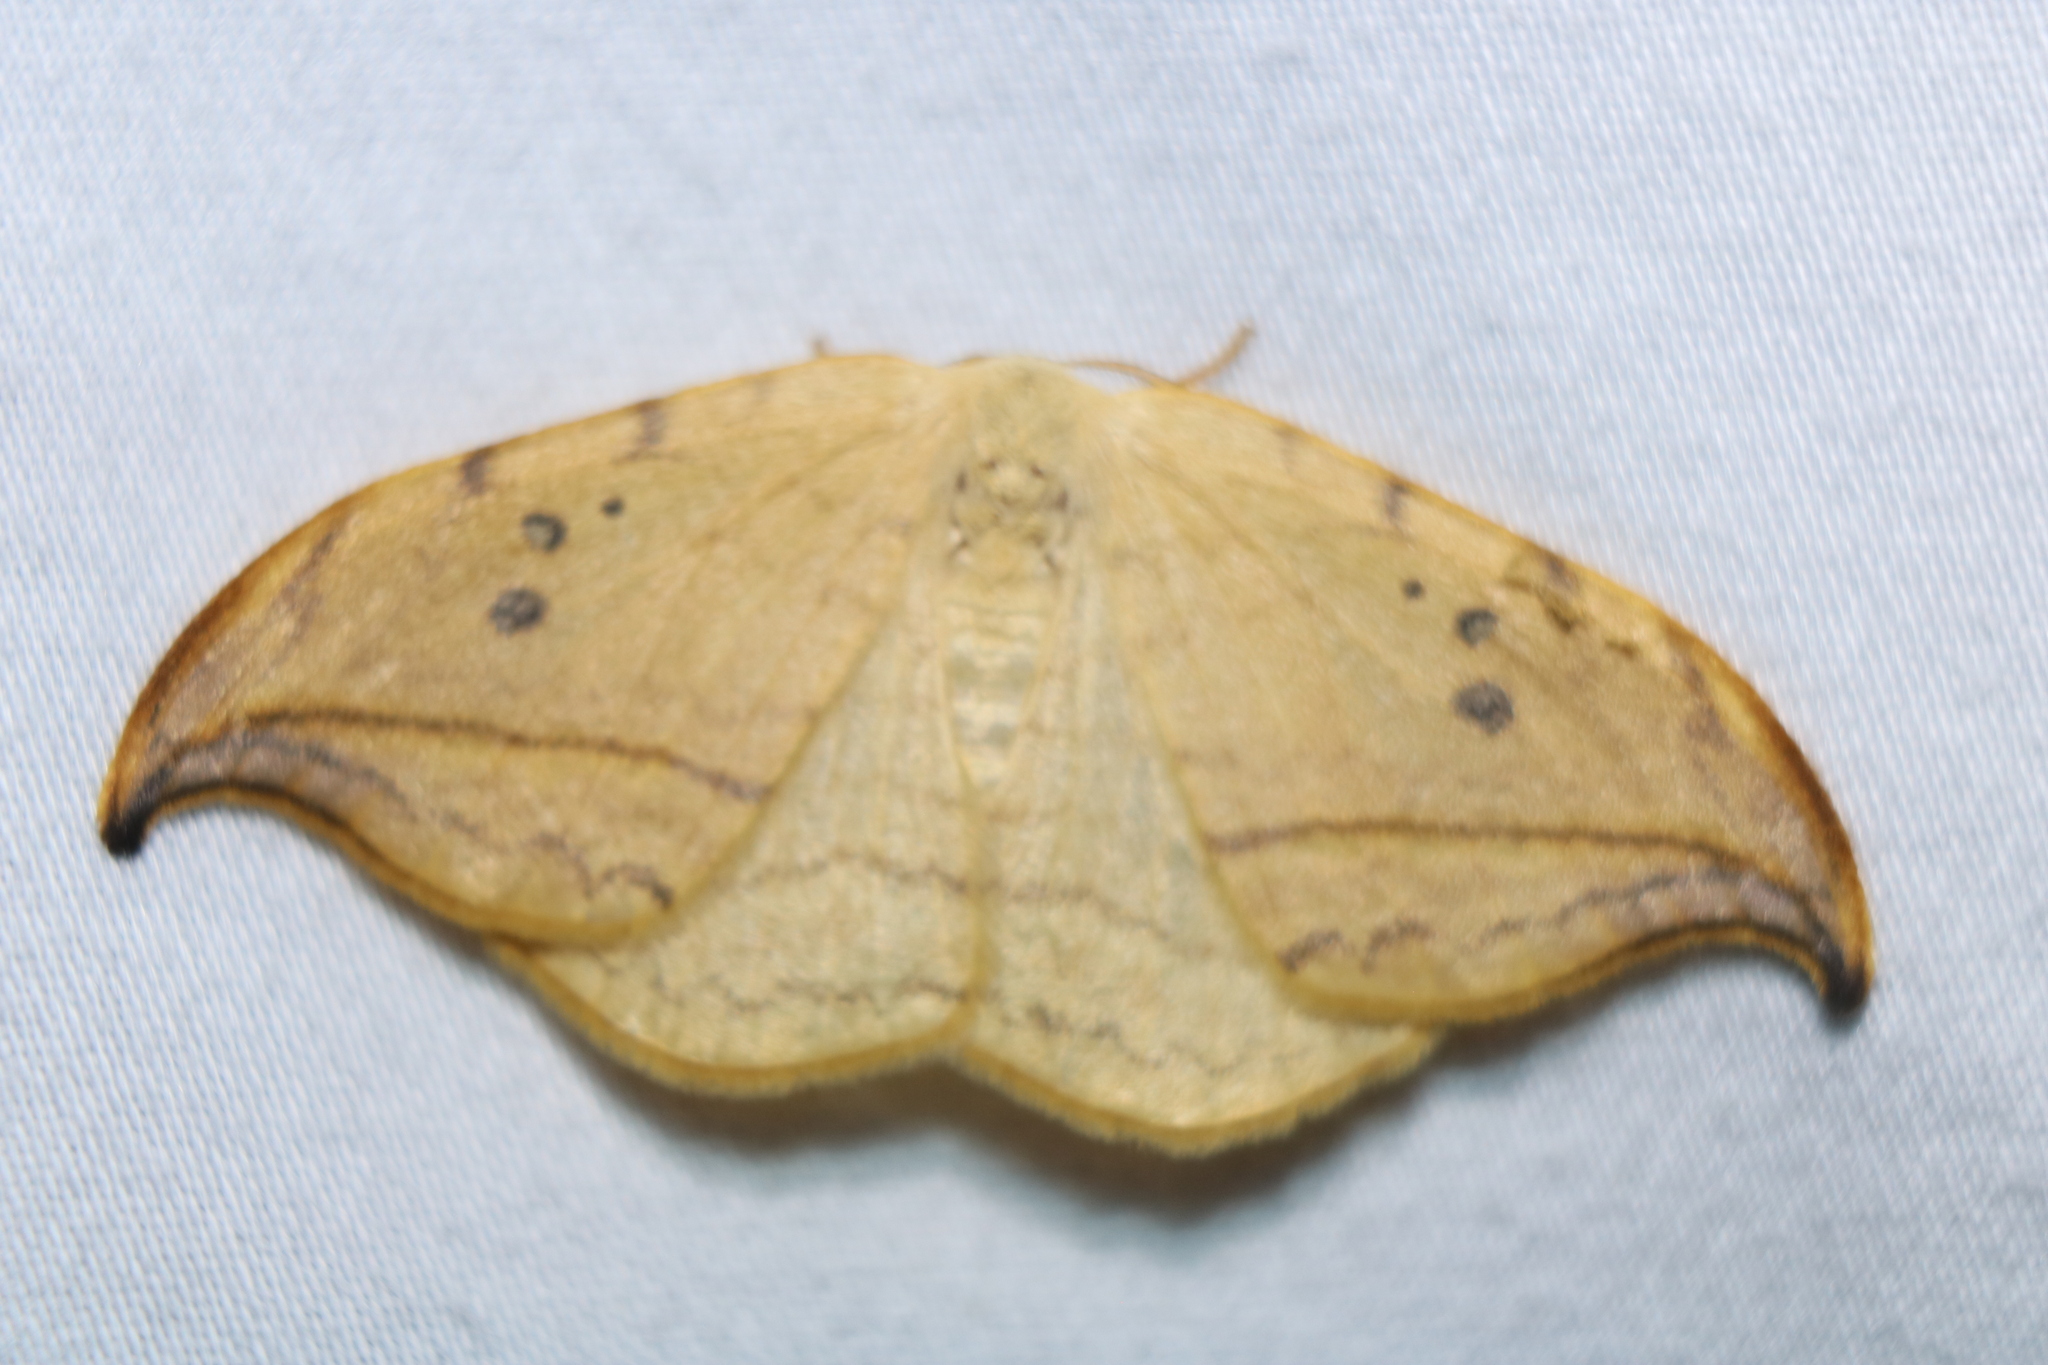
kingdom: Animalia
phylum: Arthropoda
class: Insecta
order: Lepidoptera
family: Drepanidae
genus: Drepana
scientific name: Drepana arcuata
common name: Arched hooktip moth
